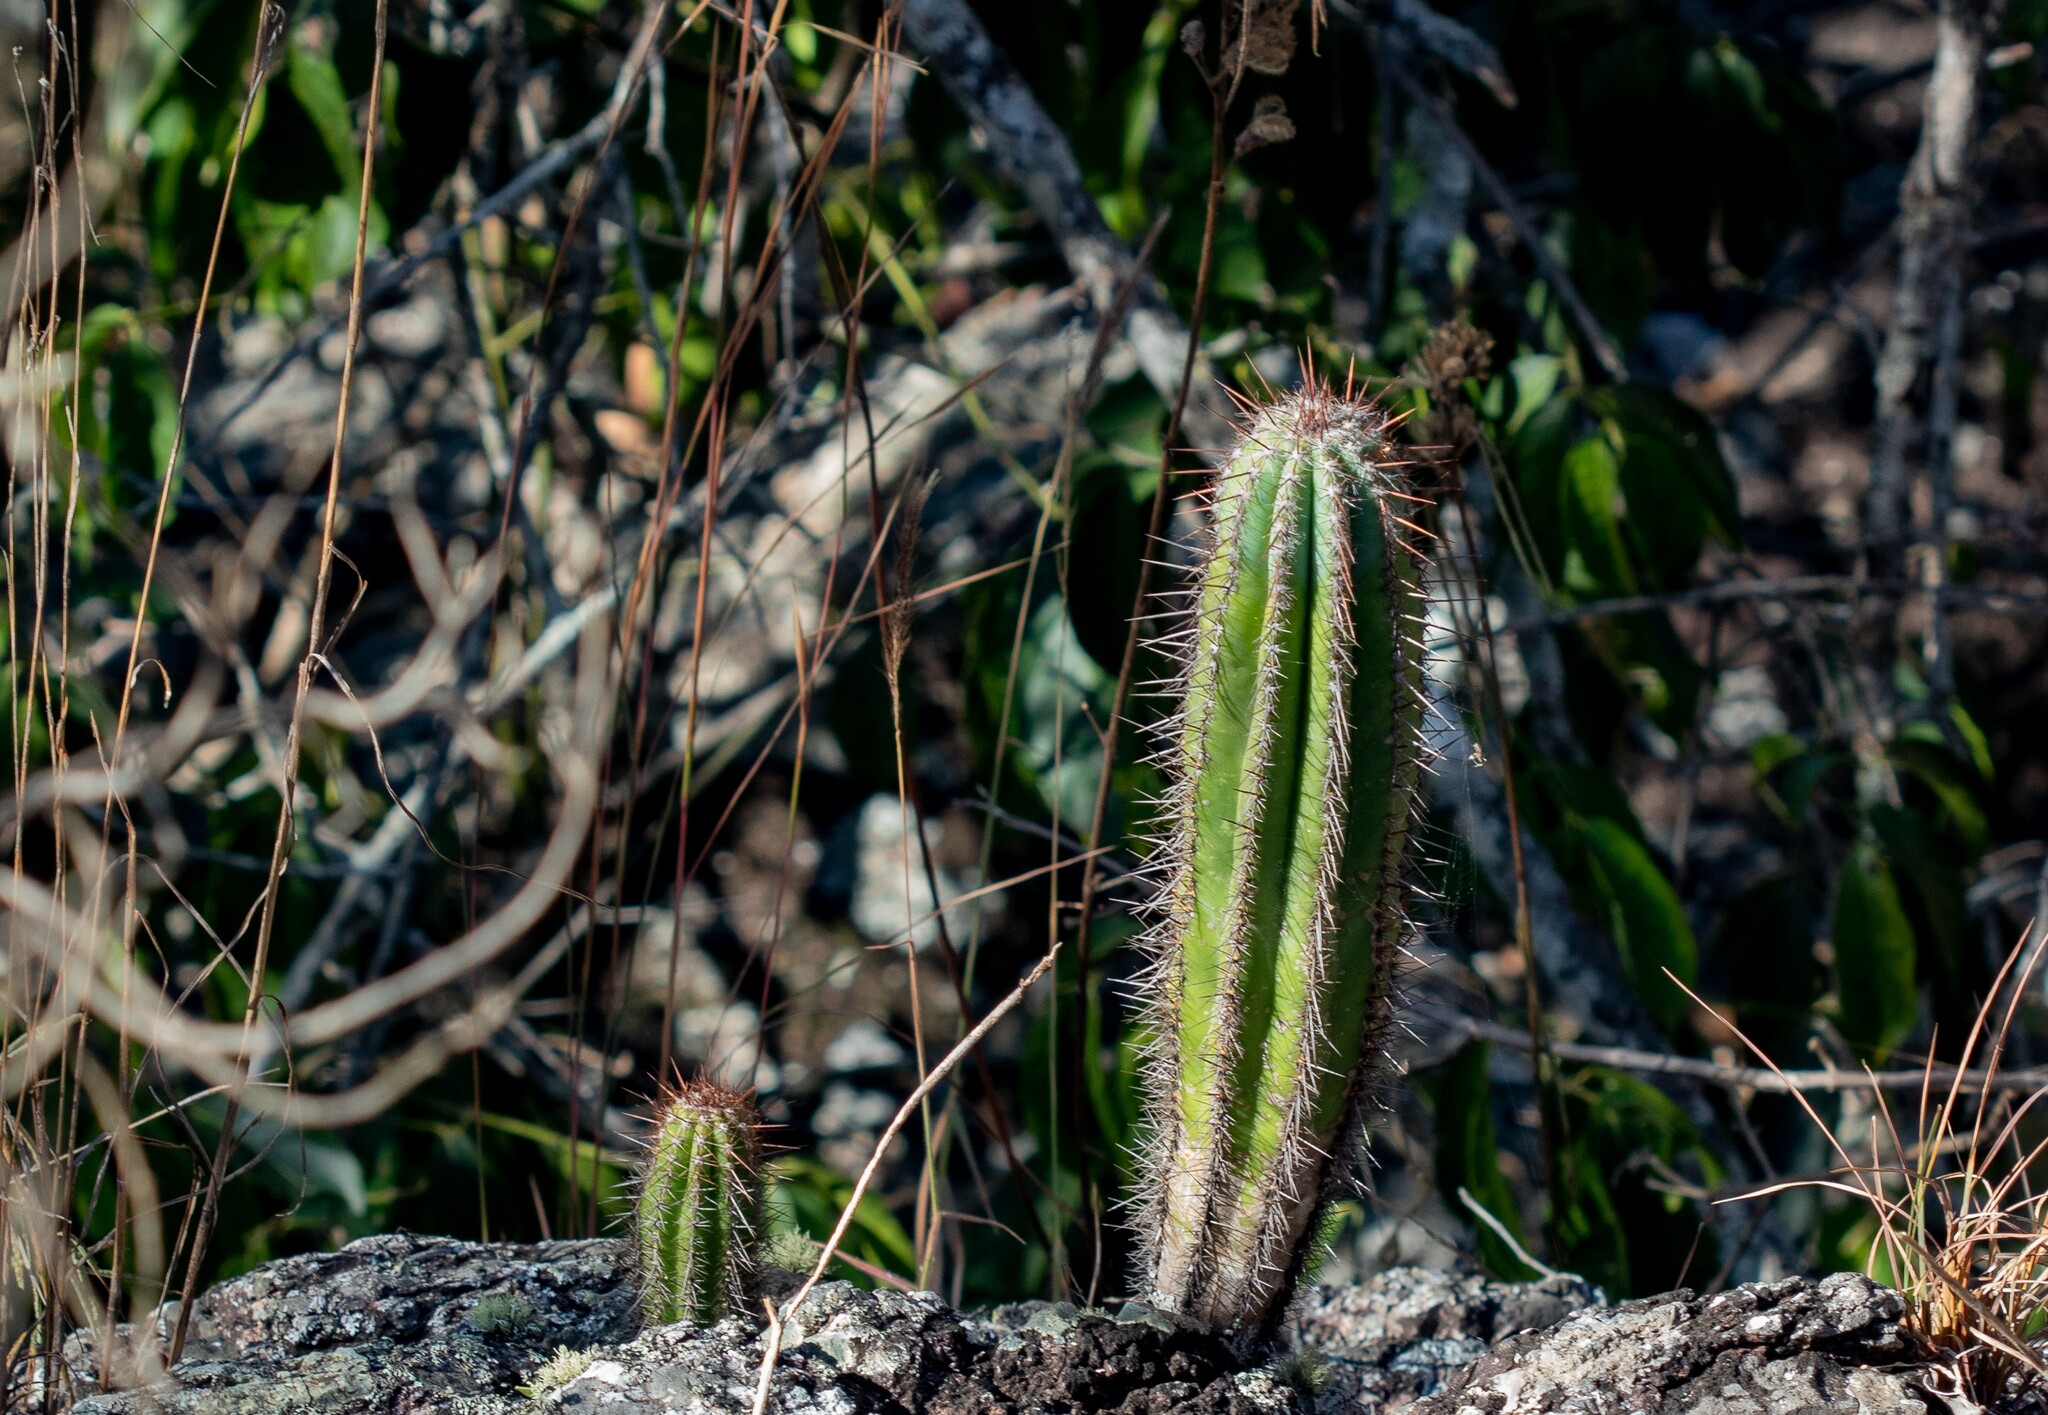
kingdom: Plantae
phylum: Tracheophyta
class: Magnoliopsida
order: Caryophyllales
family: Cactaceae
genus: Pilosocereus
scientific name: Pilosocereus machrisii
